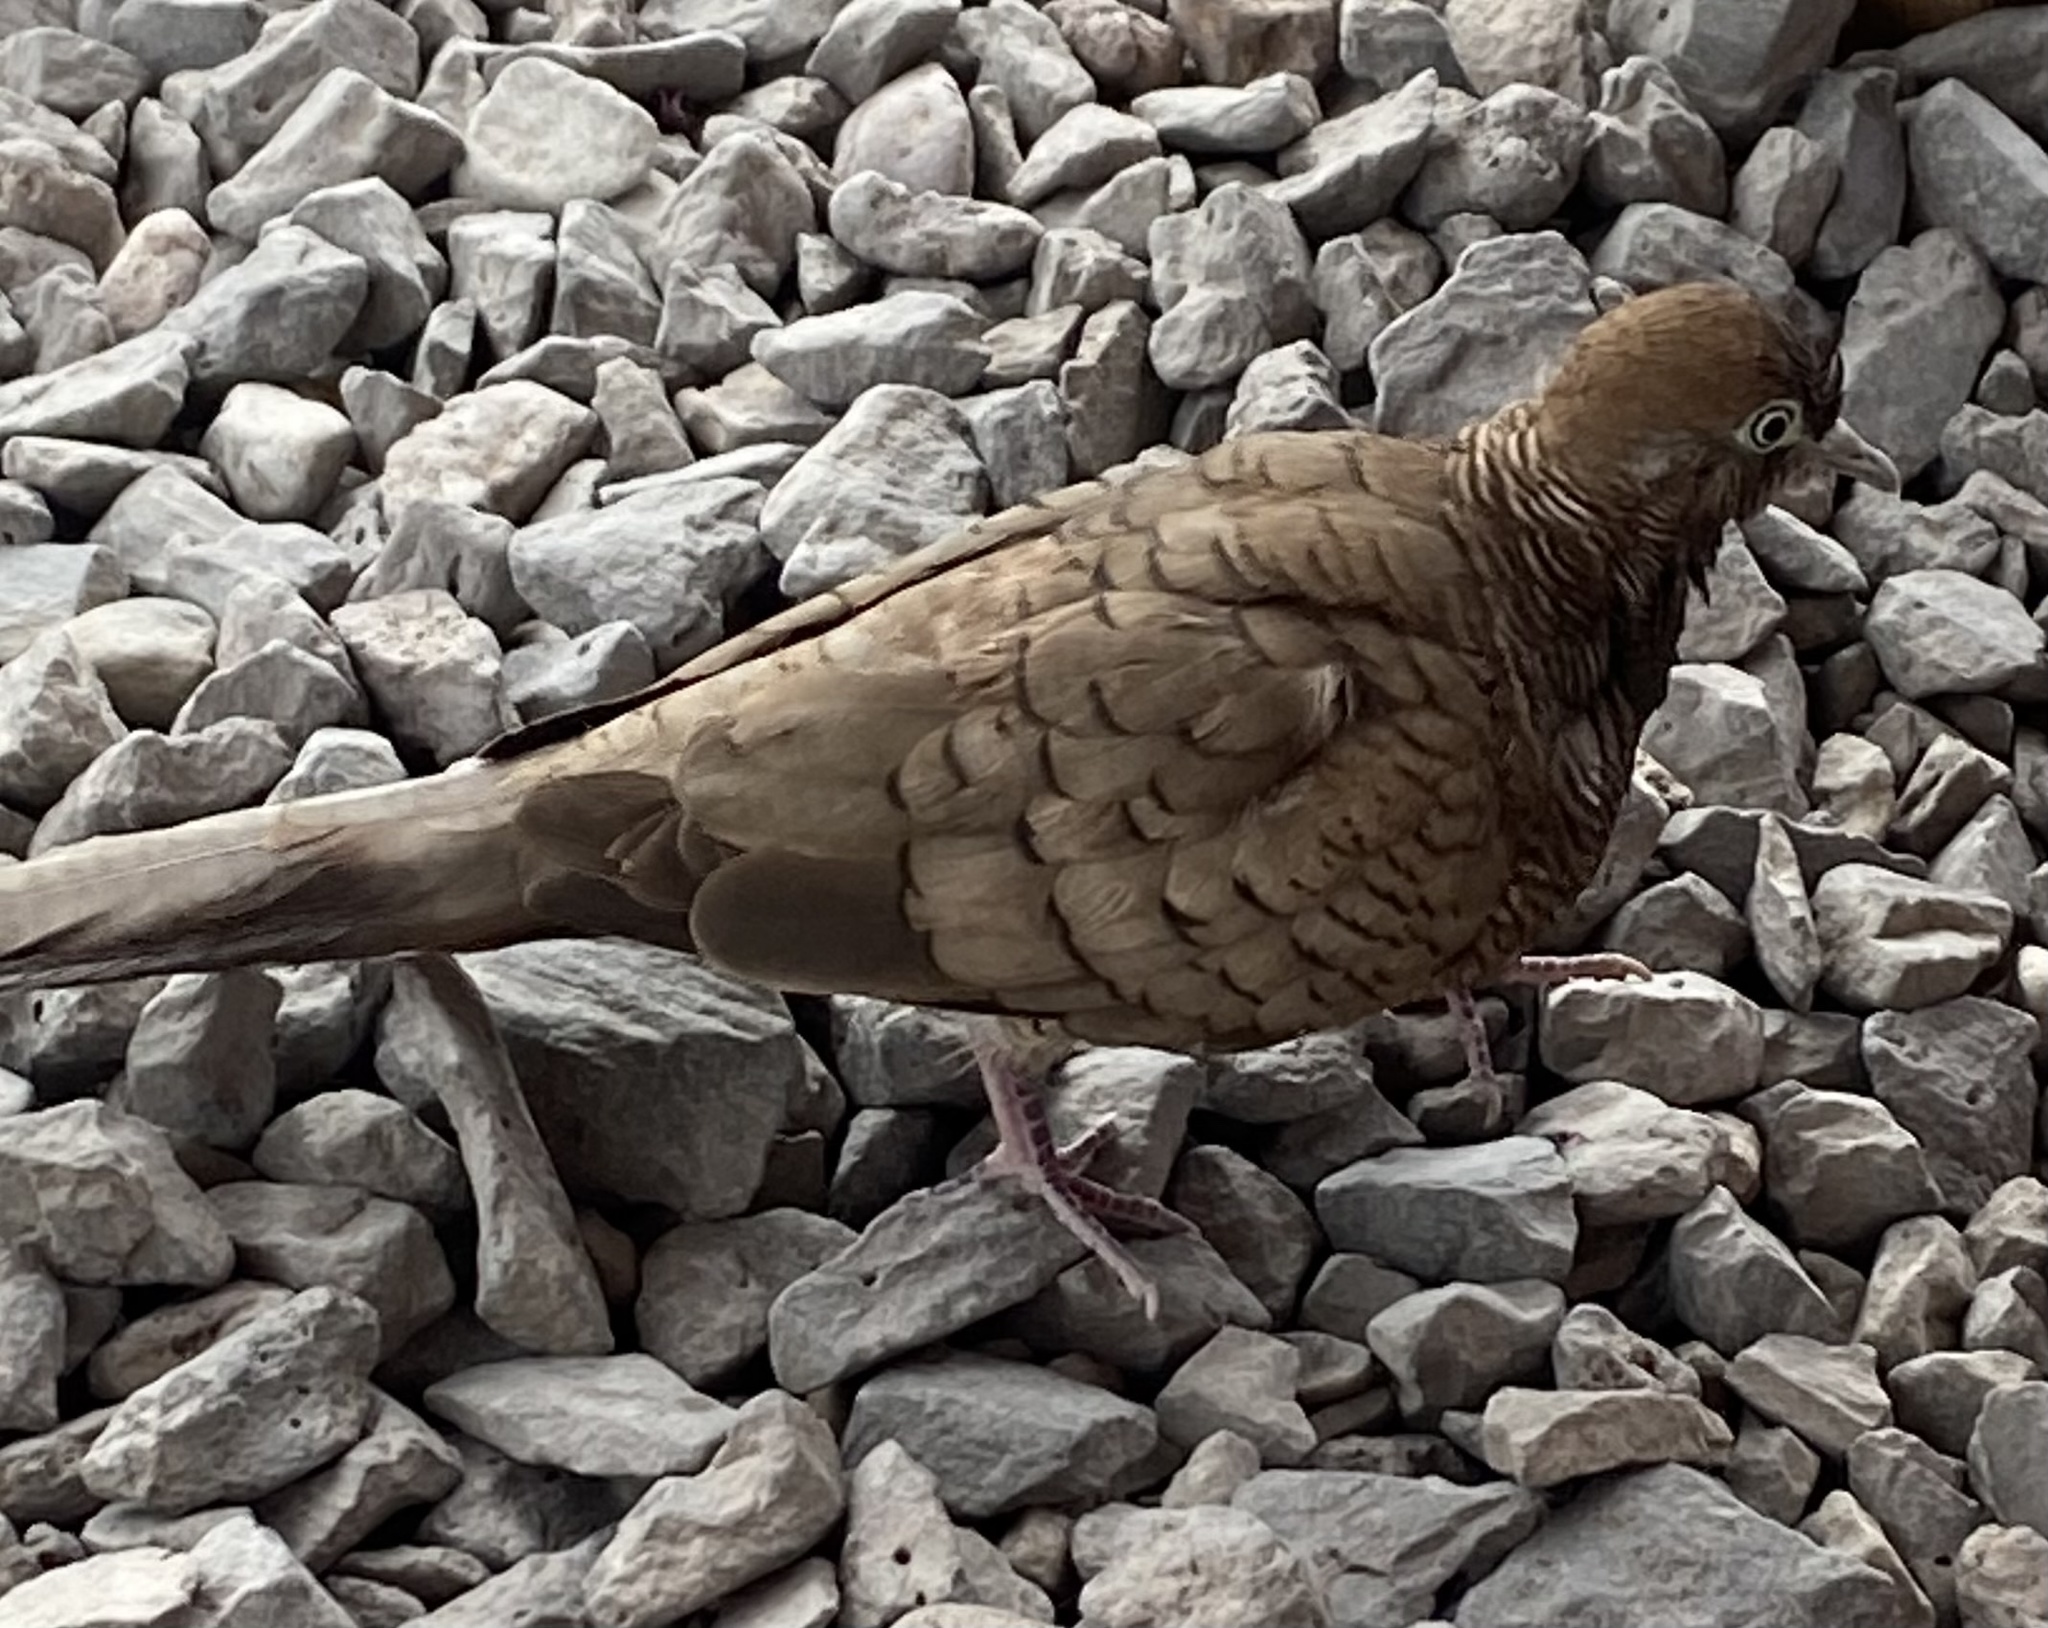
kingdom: Animalia
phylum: Chordata
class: Aves
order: Columbiformes
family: Columbidae
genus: Geopelia
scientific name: Geopelia striata
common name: Zebra dove
